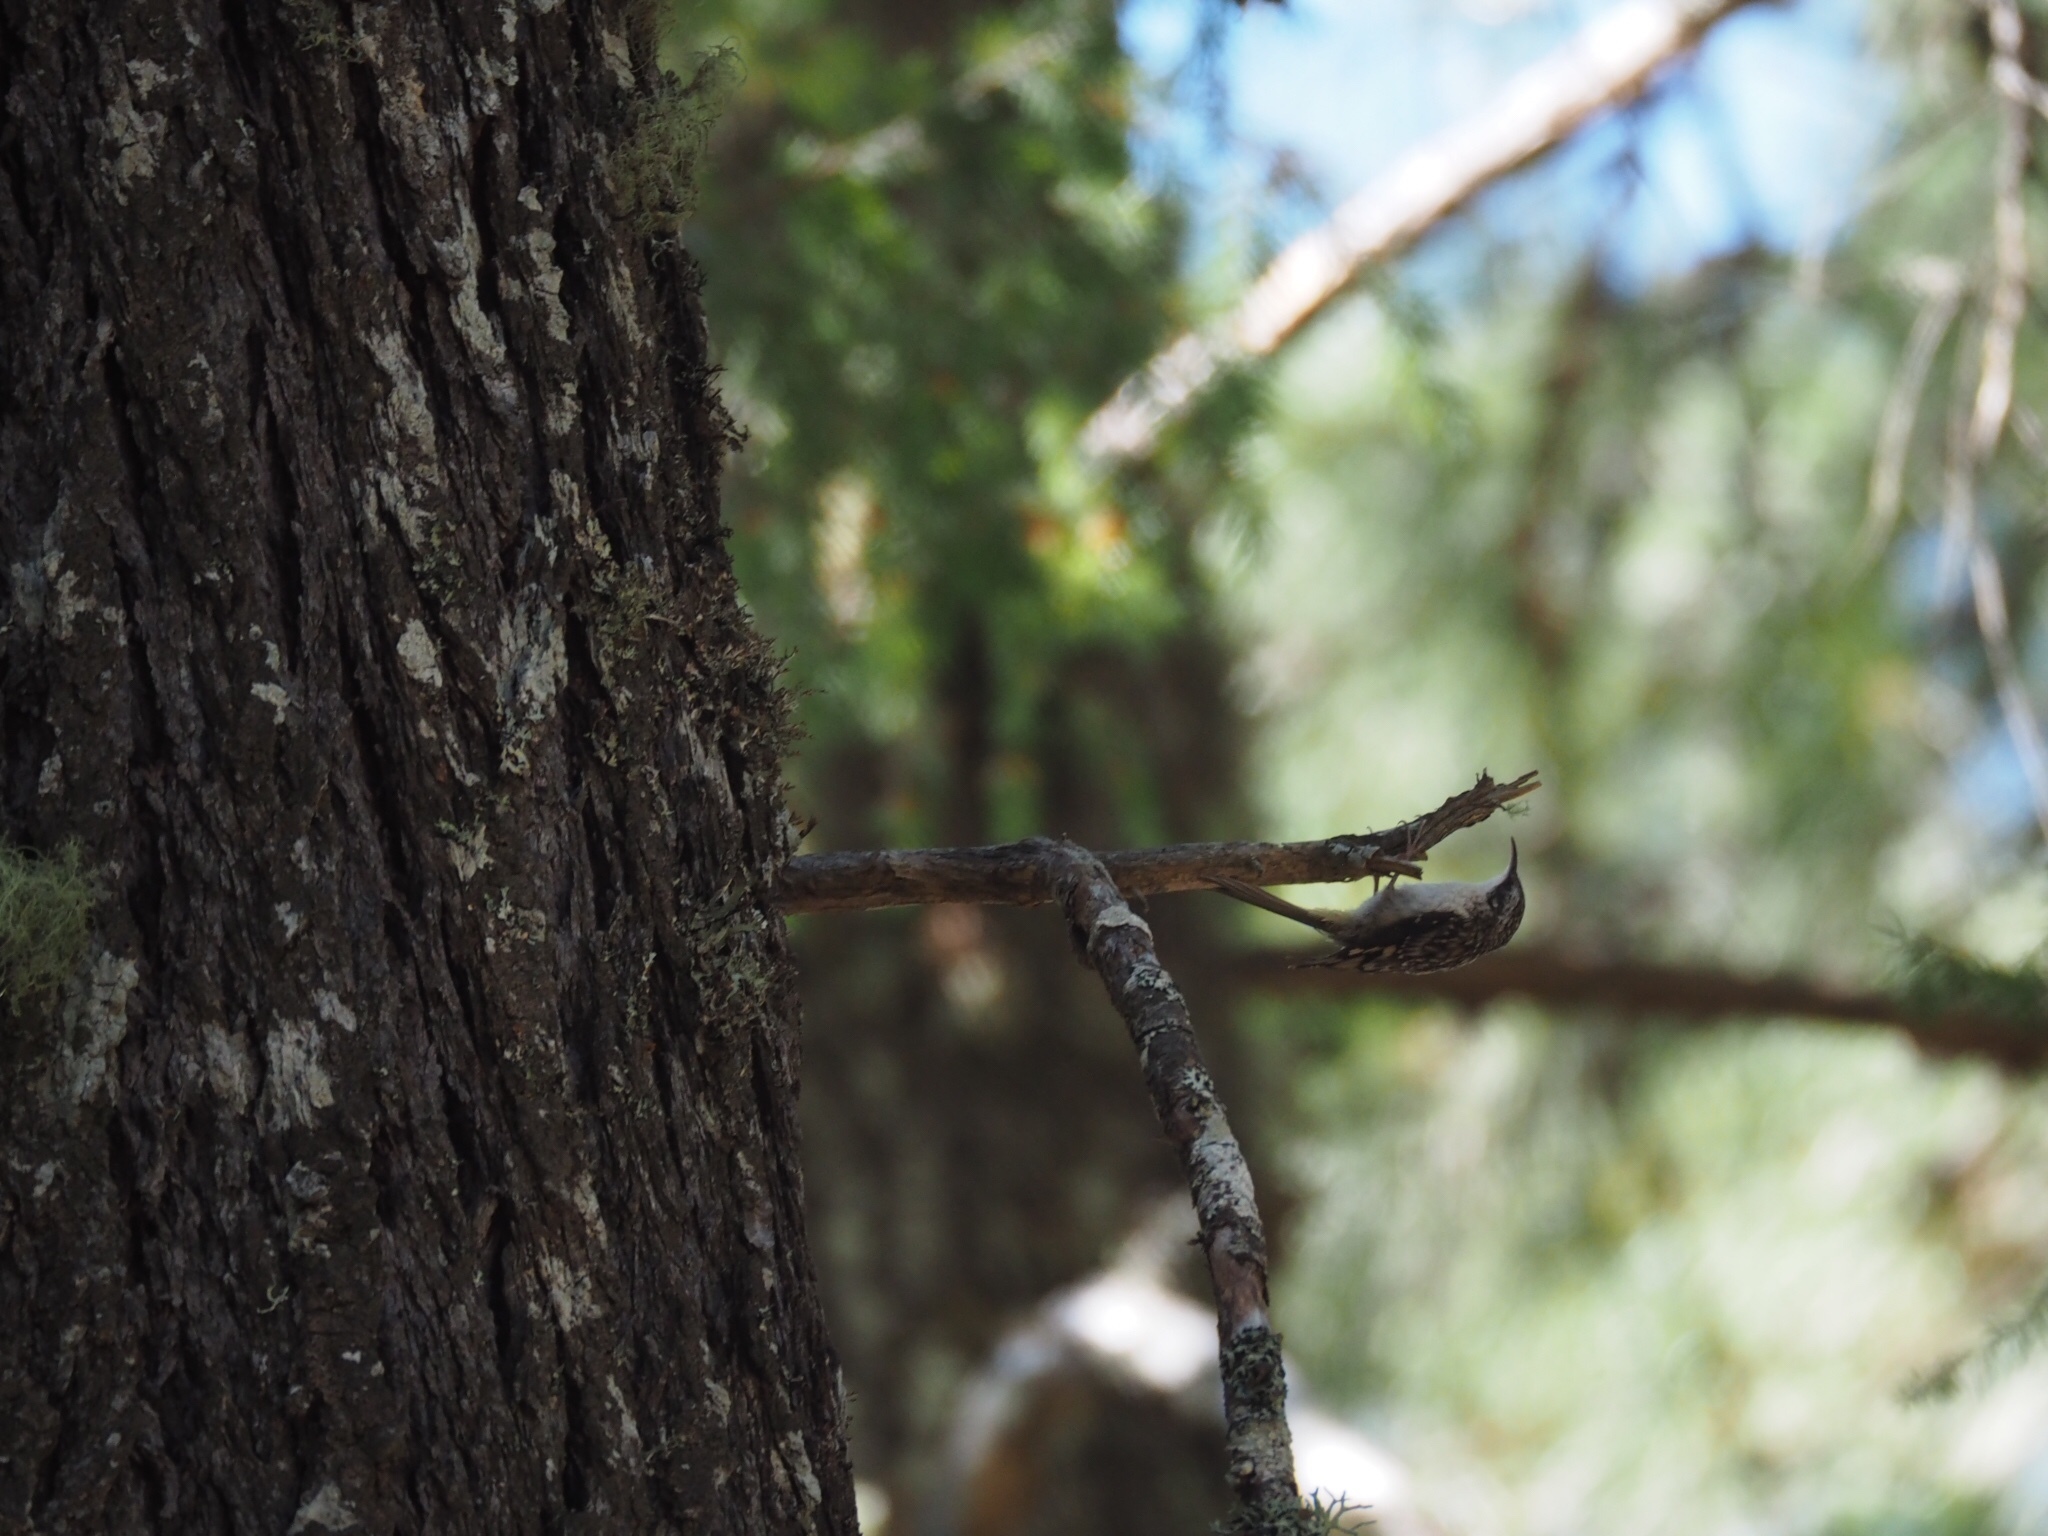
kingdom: Animalia
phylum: Chordata
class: Aves
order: Passeriformes
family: Certhiidae
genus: Certhia
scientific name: Certhia americana
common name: Brown creeper
